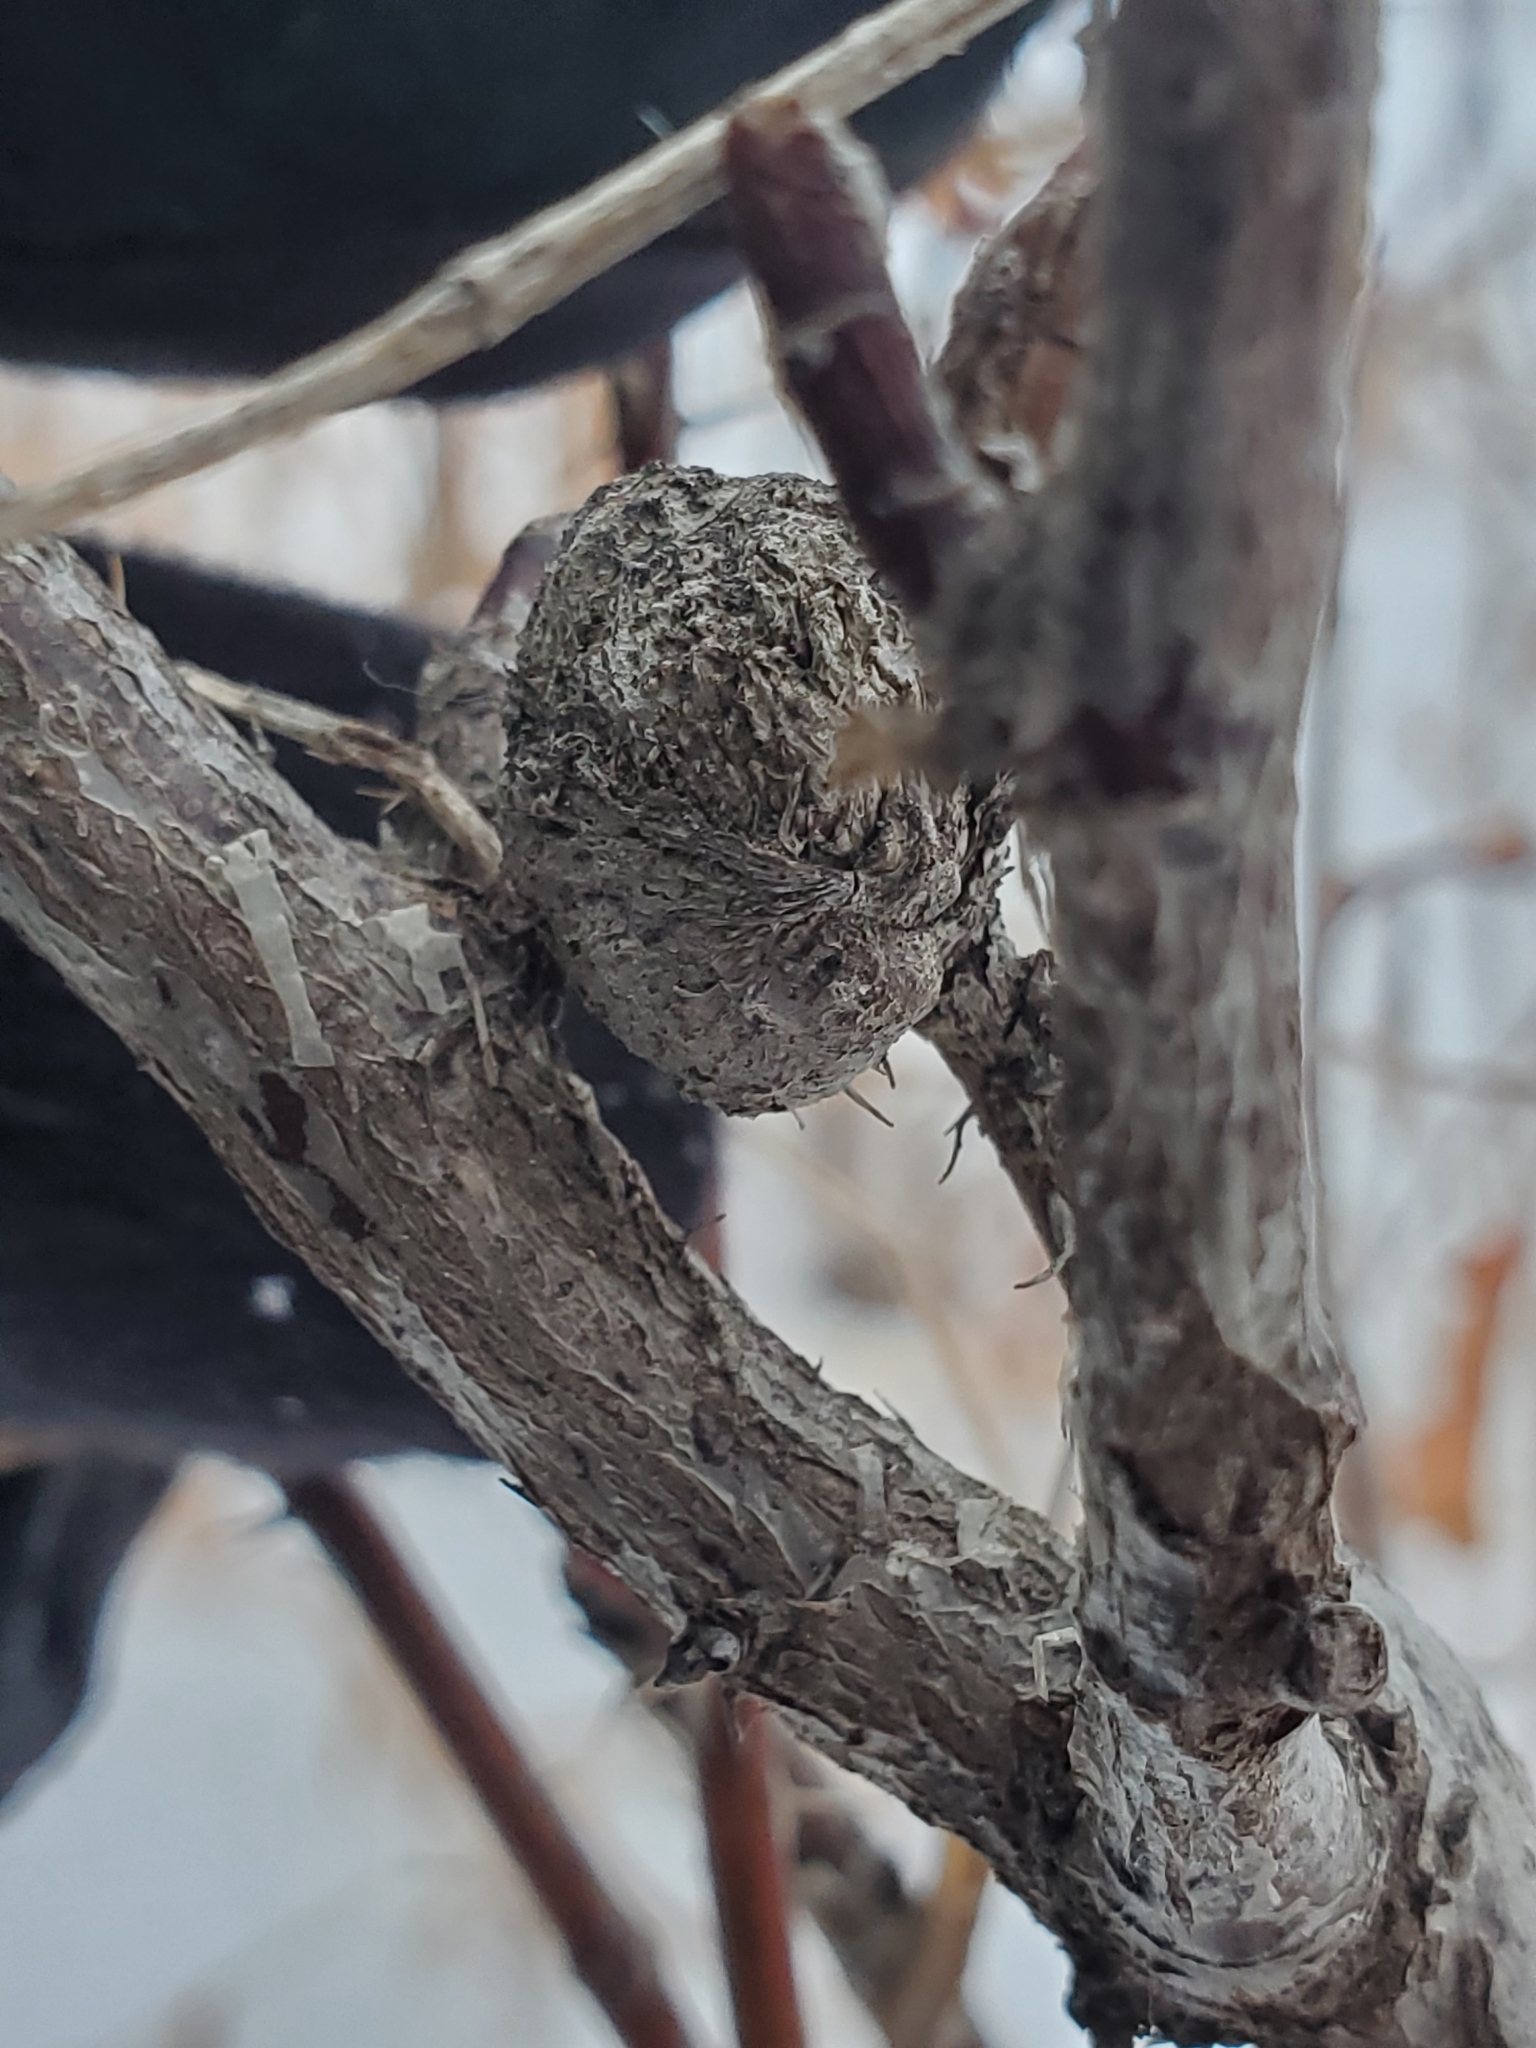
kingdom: Animalia
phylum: Arthropoda
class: Insecta
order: Hymenoptera
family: Cynipidae
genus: Diplolepis
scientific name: Diplolepis spinosa
